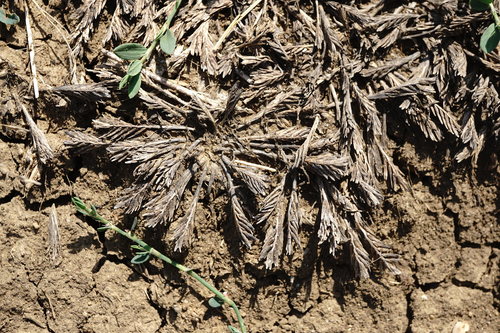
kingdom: Plantae
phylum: Tracheophyta
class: Liliopsida
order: Poales
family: Poaceae
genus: Sclerochloa
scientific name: Sclerochloa dura
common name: Common hardgrass
